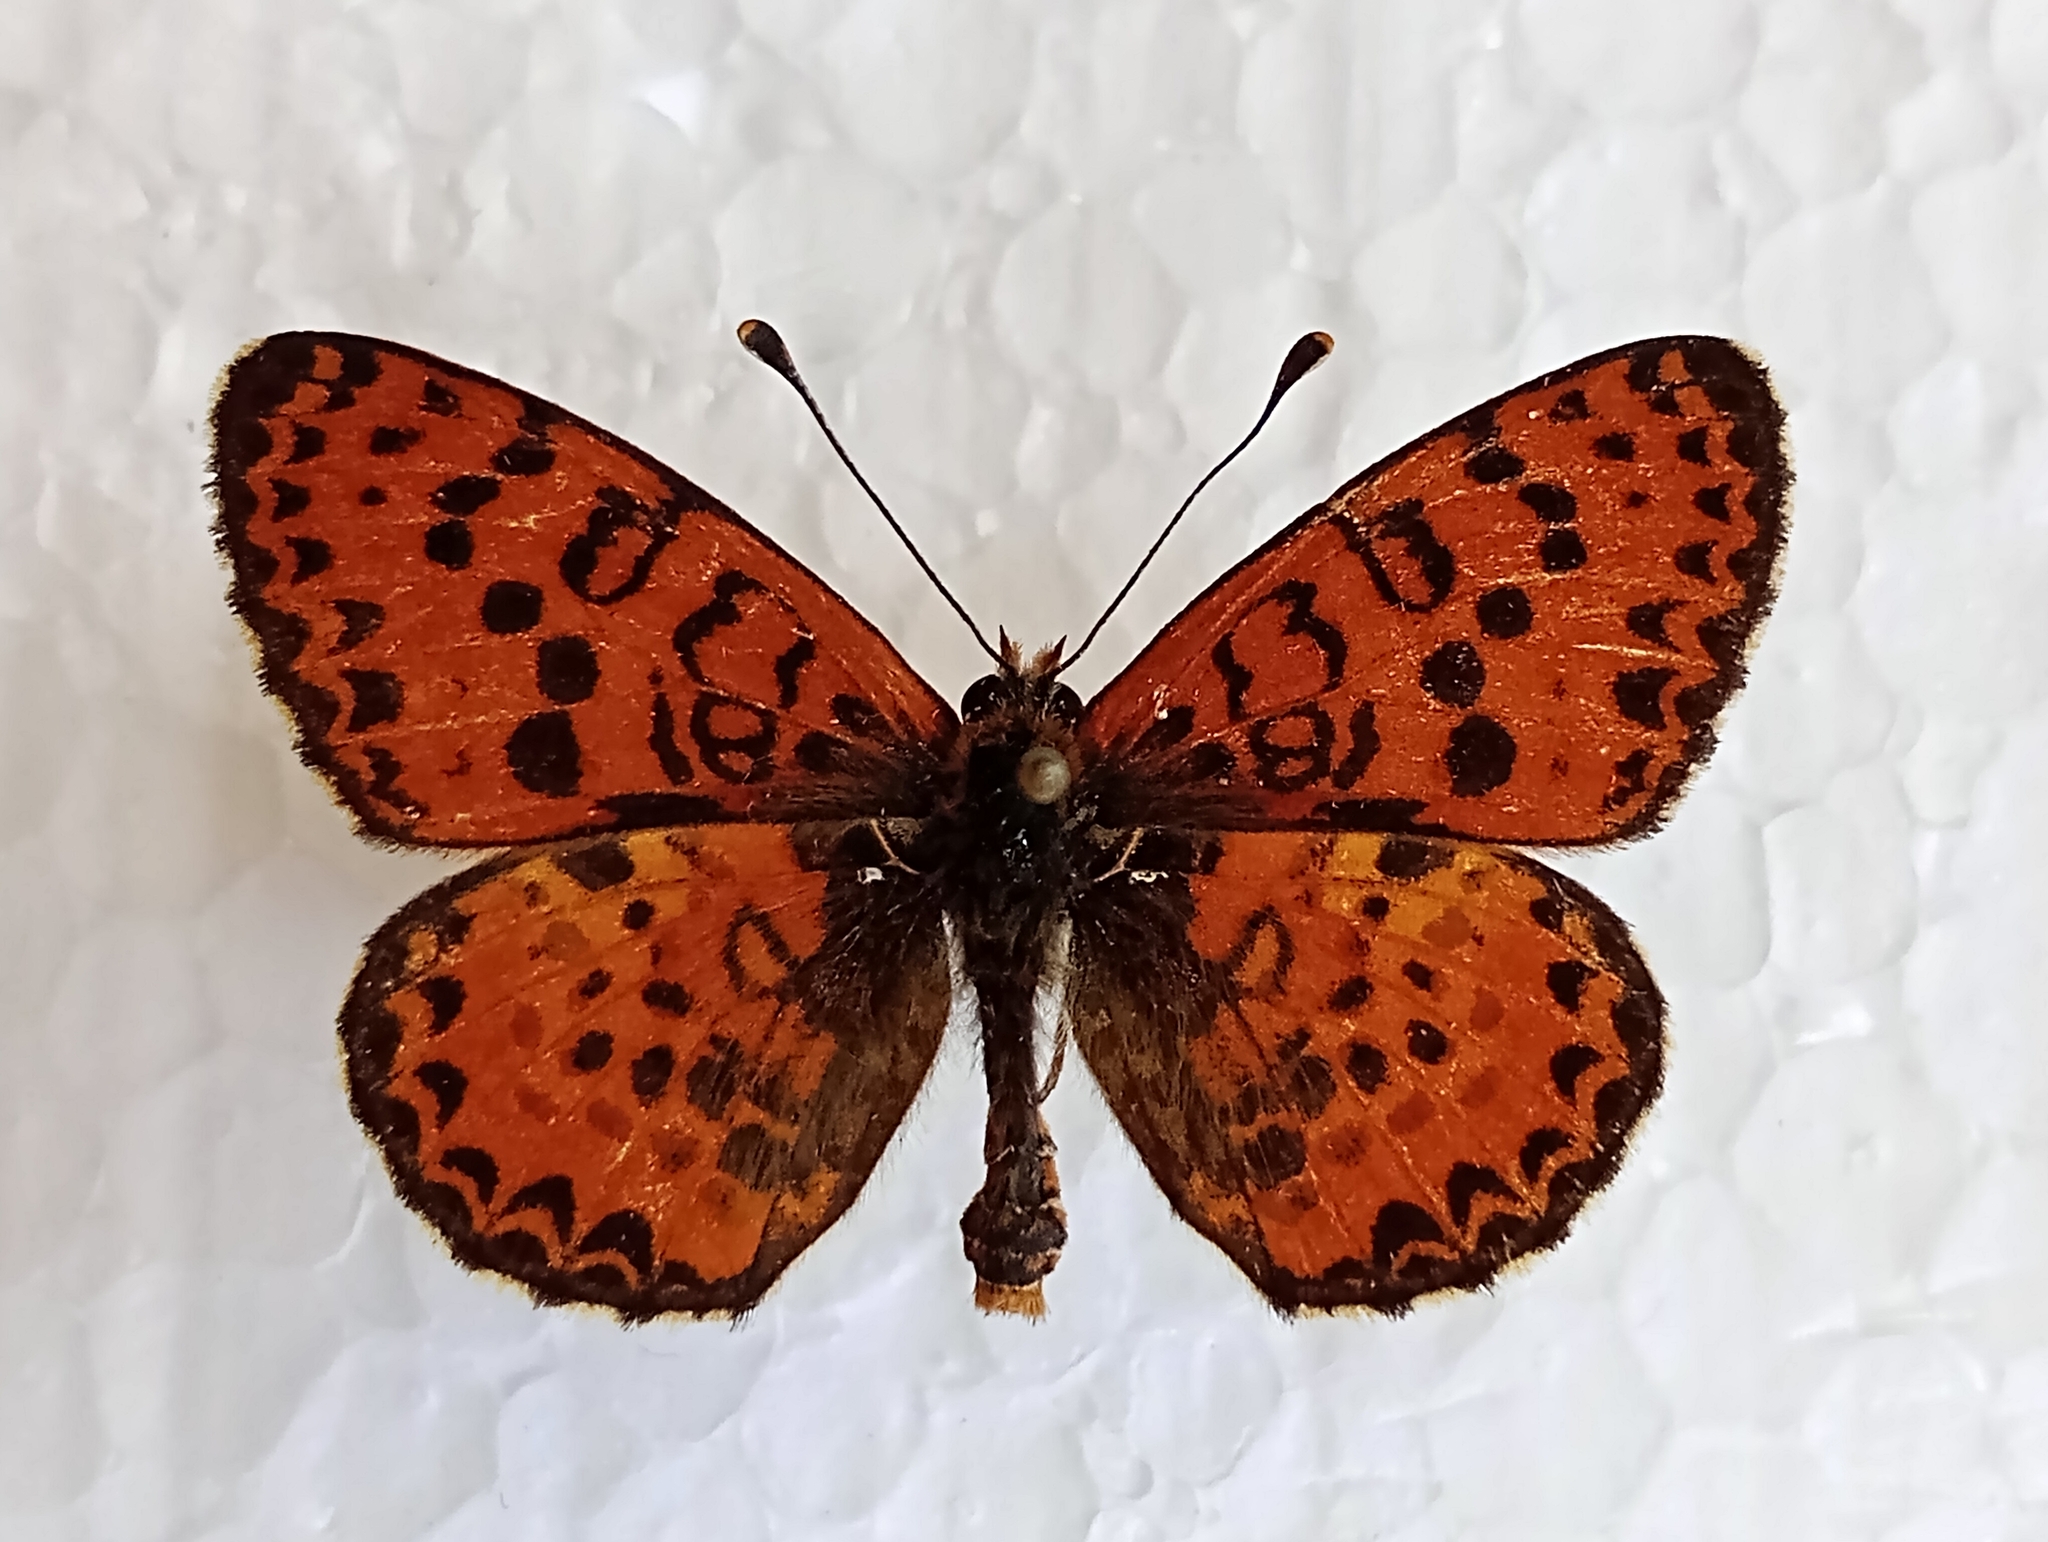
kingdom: Animalia
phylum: Arthropoda
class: Insecta
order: Lepidoptera
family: Nymphalidae
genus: Melitaea
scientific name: Melitaea didyma
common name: Spotted fritillary
